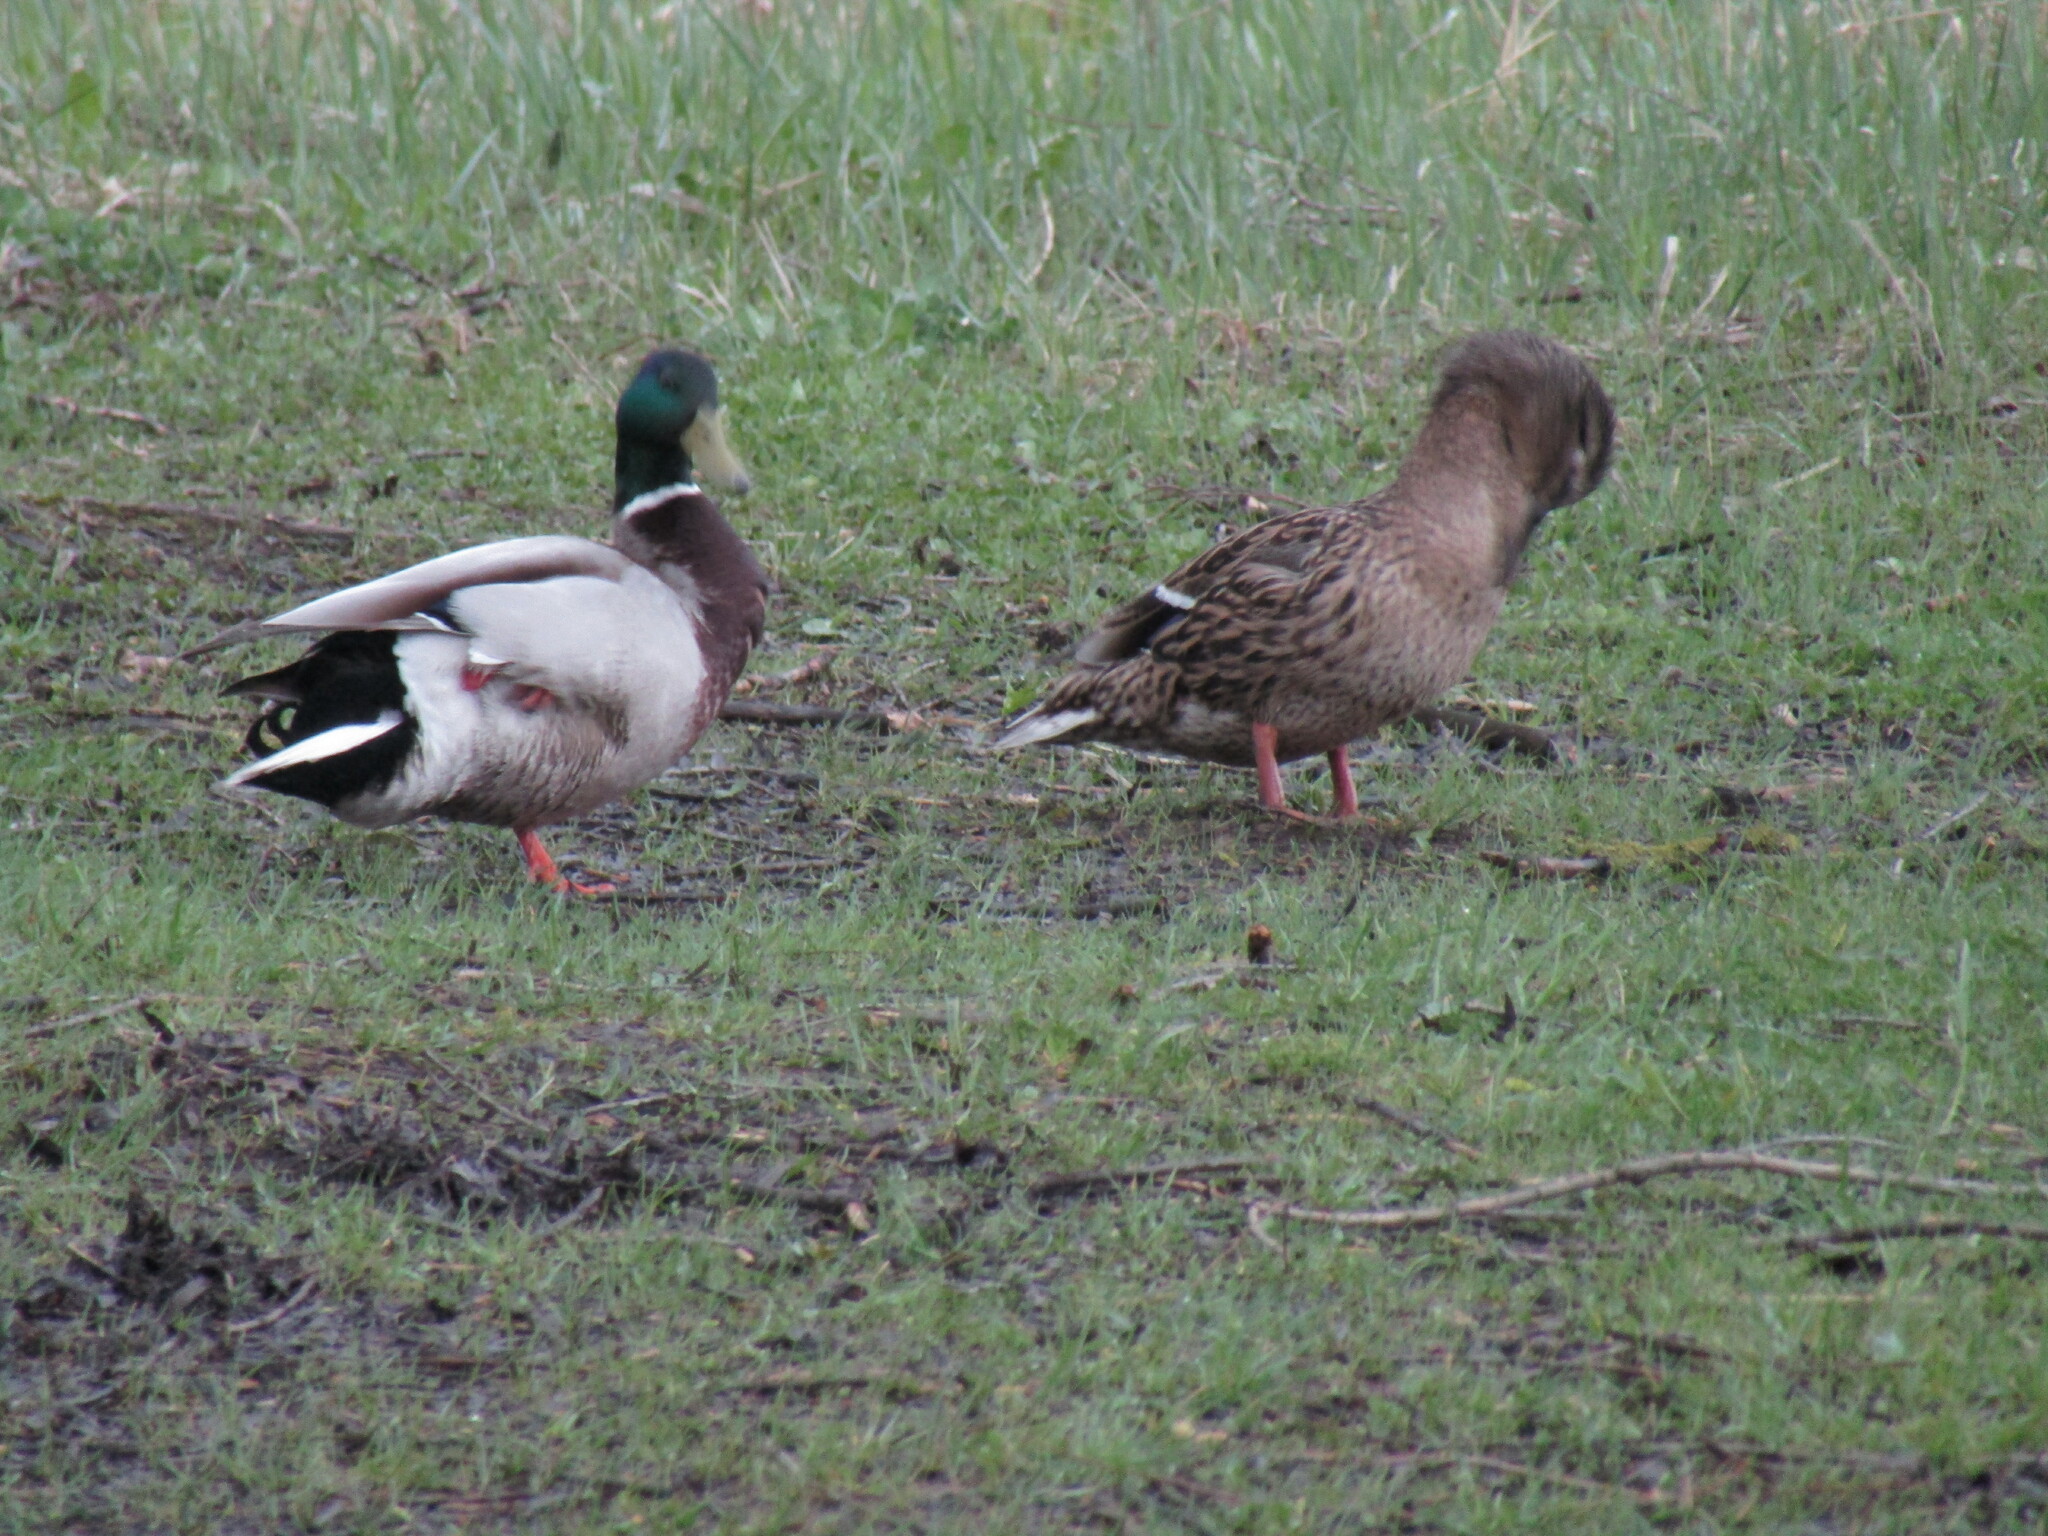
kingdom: Animalia
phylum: Chordata
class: Aves
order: Anseriformes
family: Anatidae
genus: Anas
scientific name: Anas platyrhynchos
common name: Mallard
